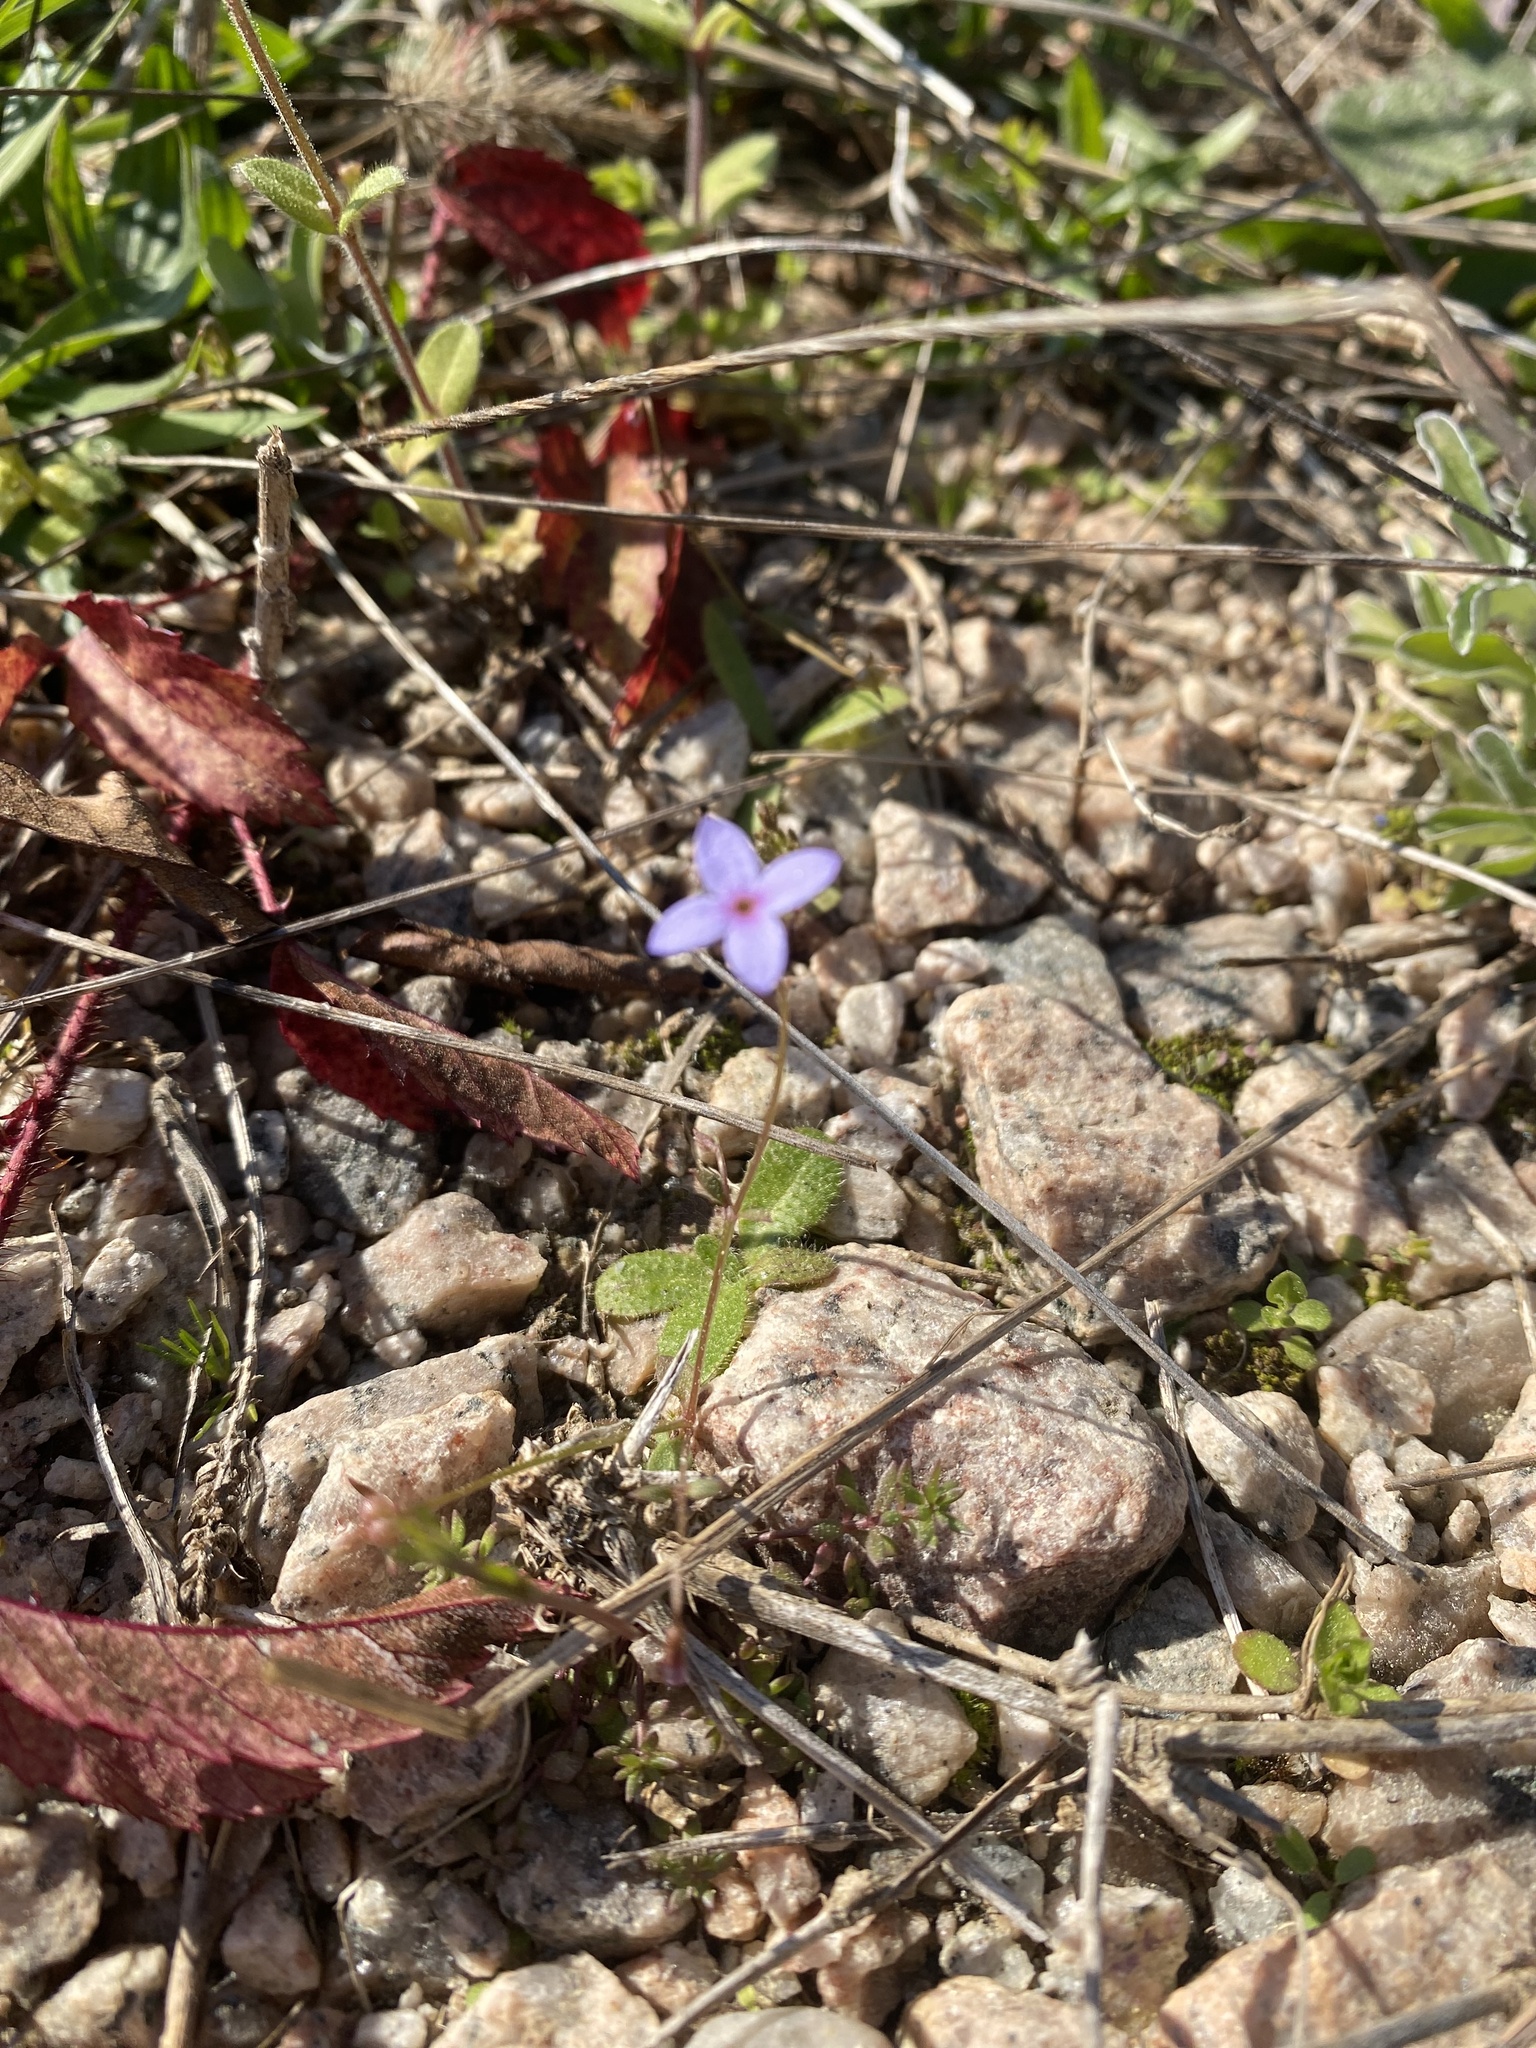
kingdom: Plantae
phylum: Tracheophyta
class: Magnoliopsida
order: Gentianales
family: Rubiaceae
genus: Houstonia
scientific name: Houstonia pusilla
